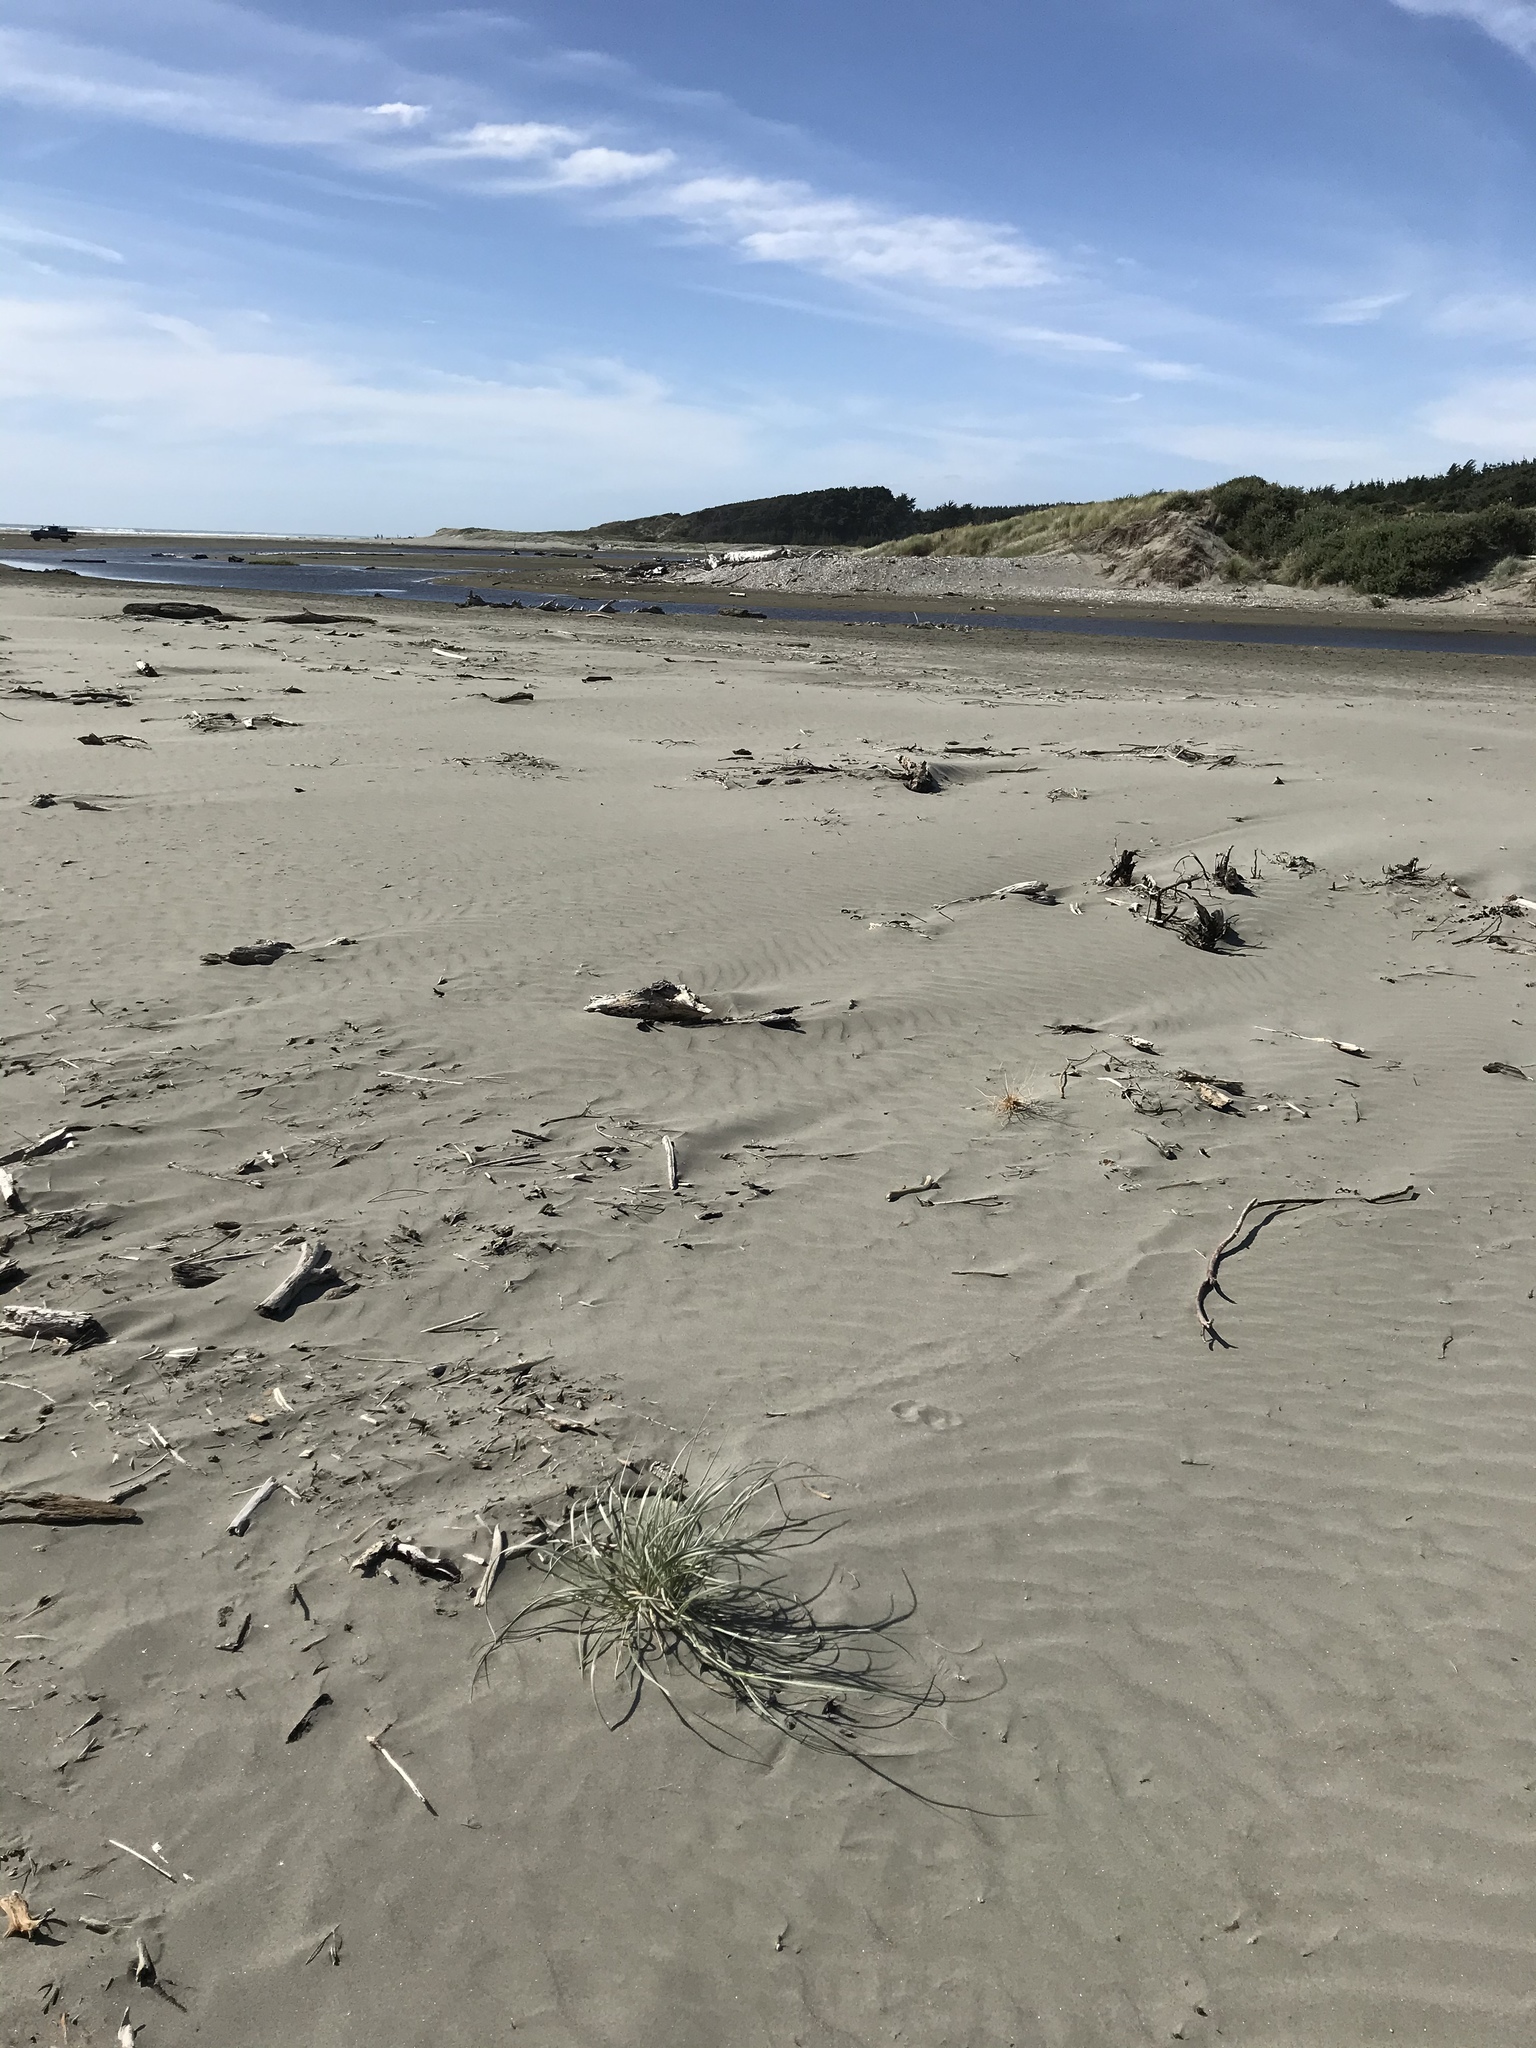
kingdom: Plantae
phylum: Tracheophyta
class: Liliopsida
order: Poales
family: Poaceae
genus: Spinifex
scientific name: Spinifex sericeus
